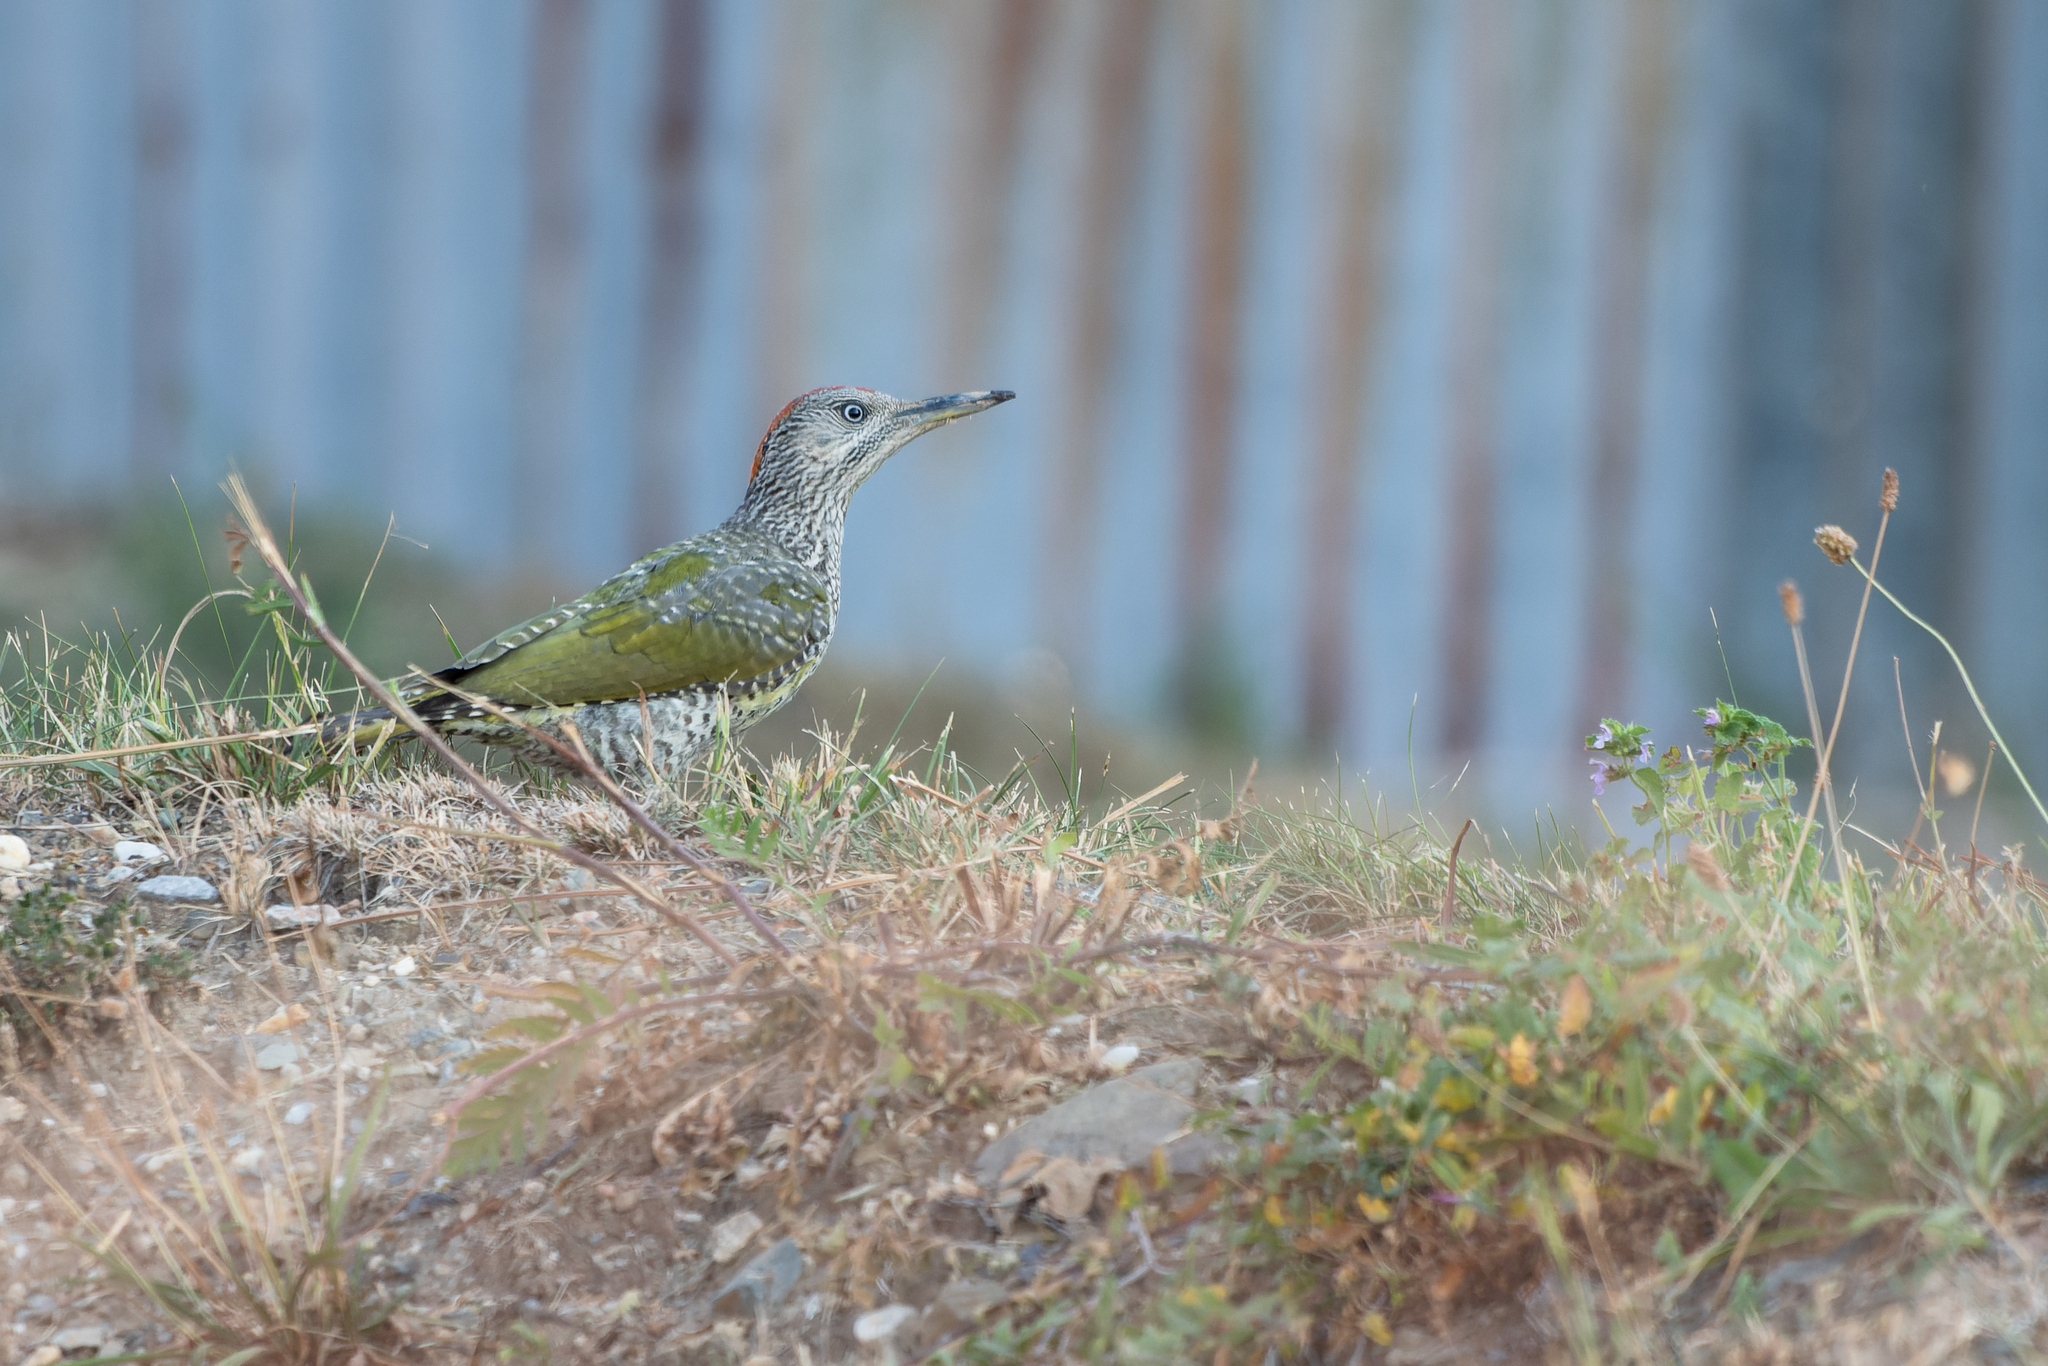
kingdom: Animalia
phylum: Chordata
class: Aves
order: Piciformes
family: Picidae
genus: Picus
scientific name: Picus viridis
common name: European green woodpecker
